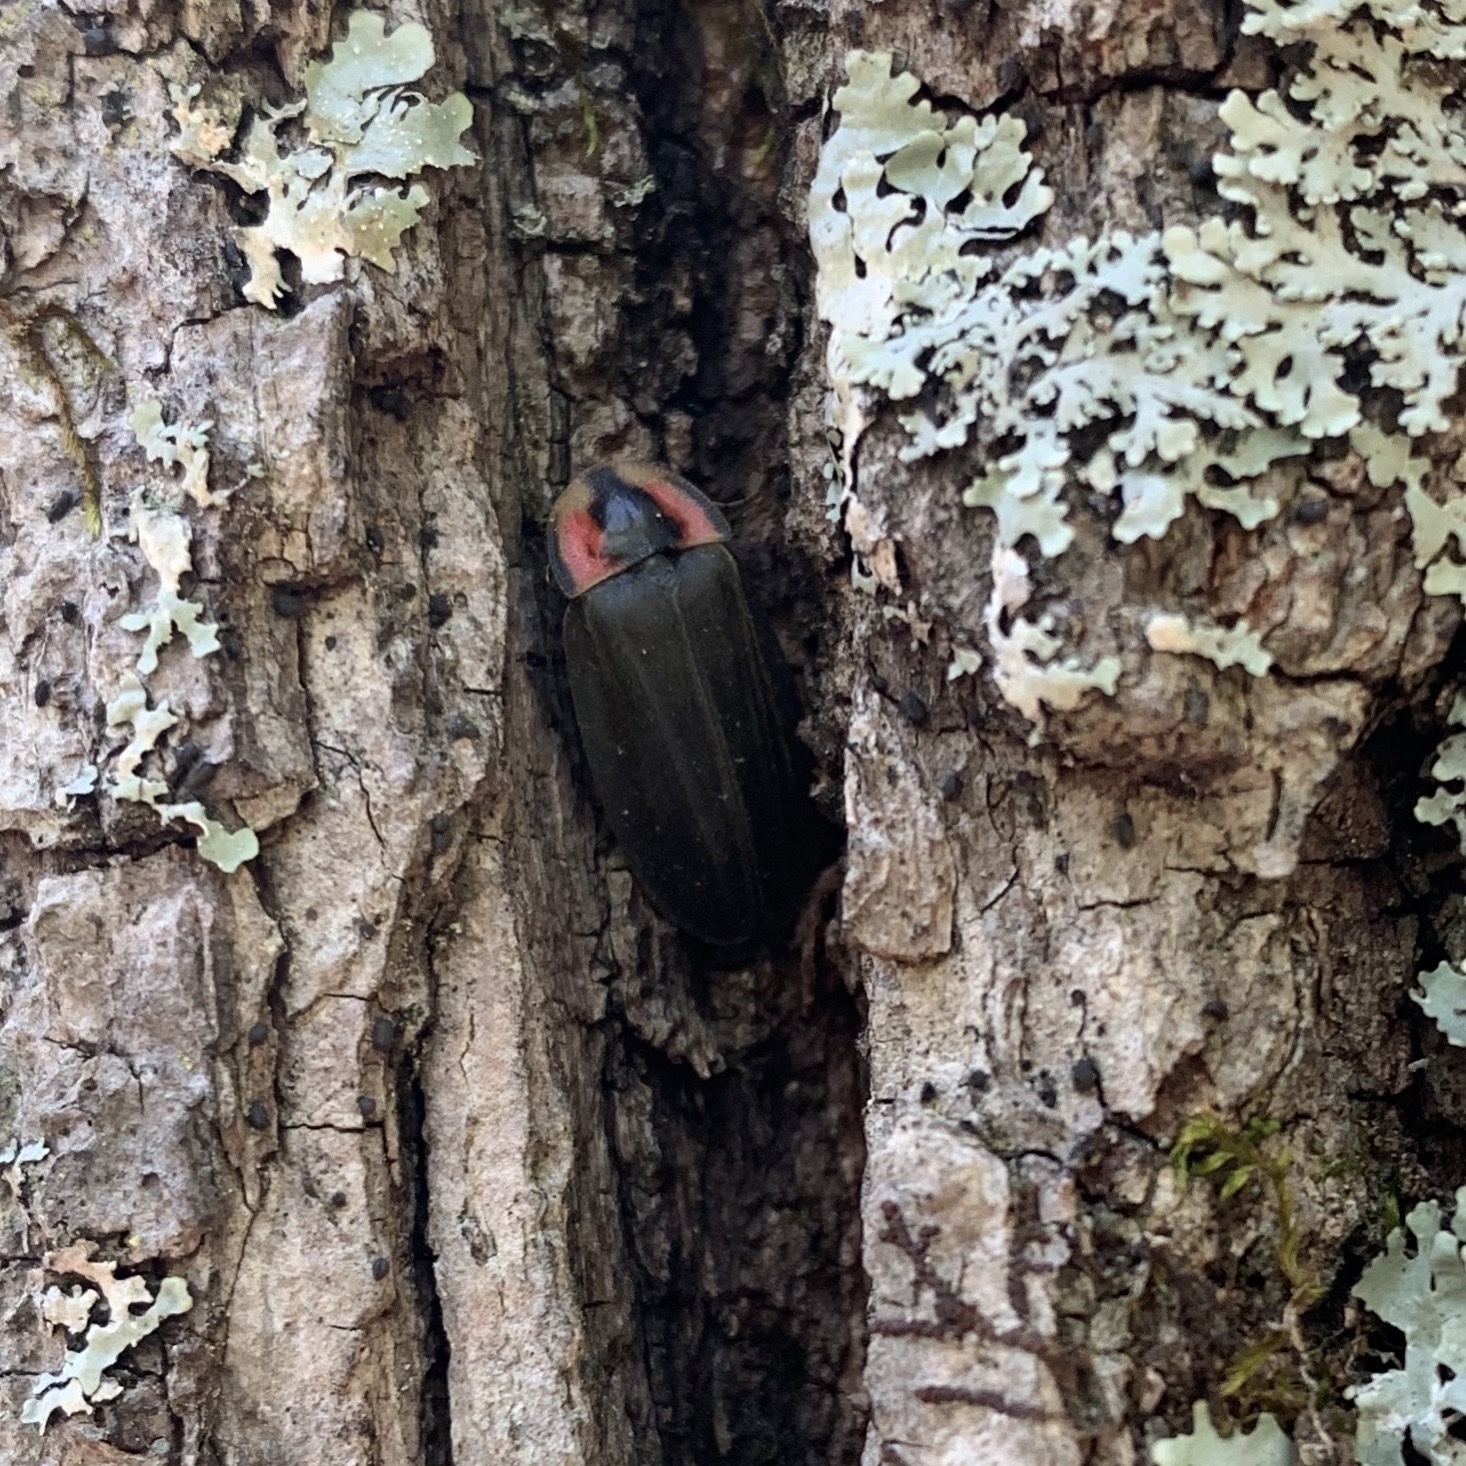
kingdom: Animalia
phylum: Arthropoda
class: Insecta
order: Coleoptera
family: Lampyridae
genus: Photinus
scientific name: Photinus corrusca
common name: Winter firefly
